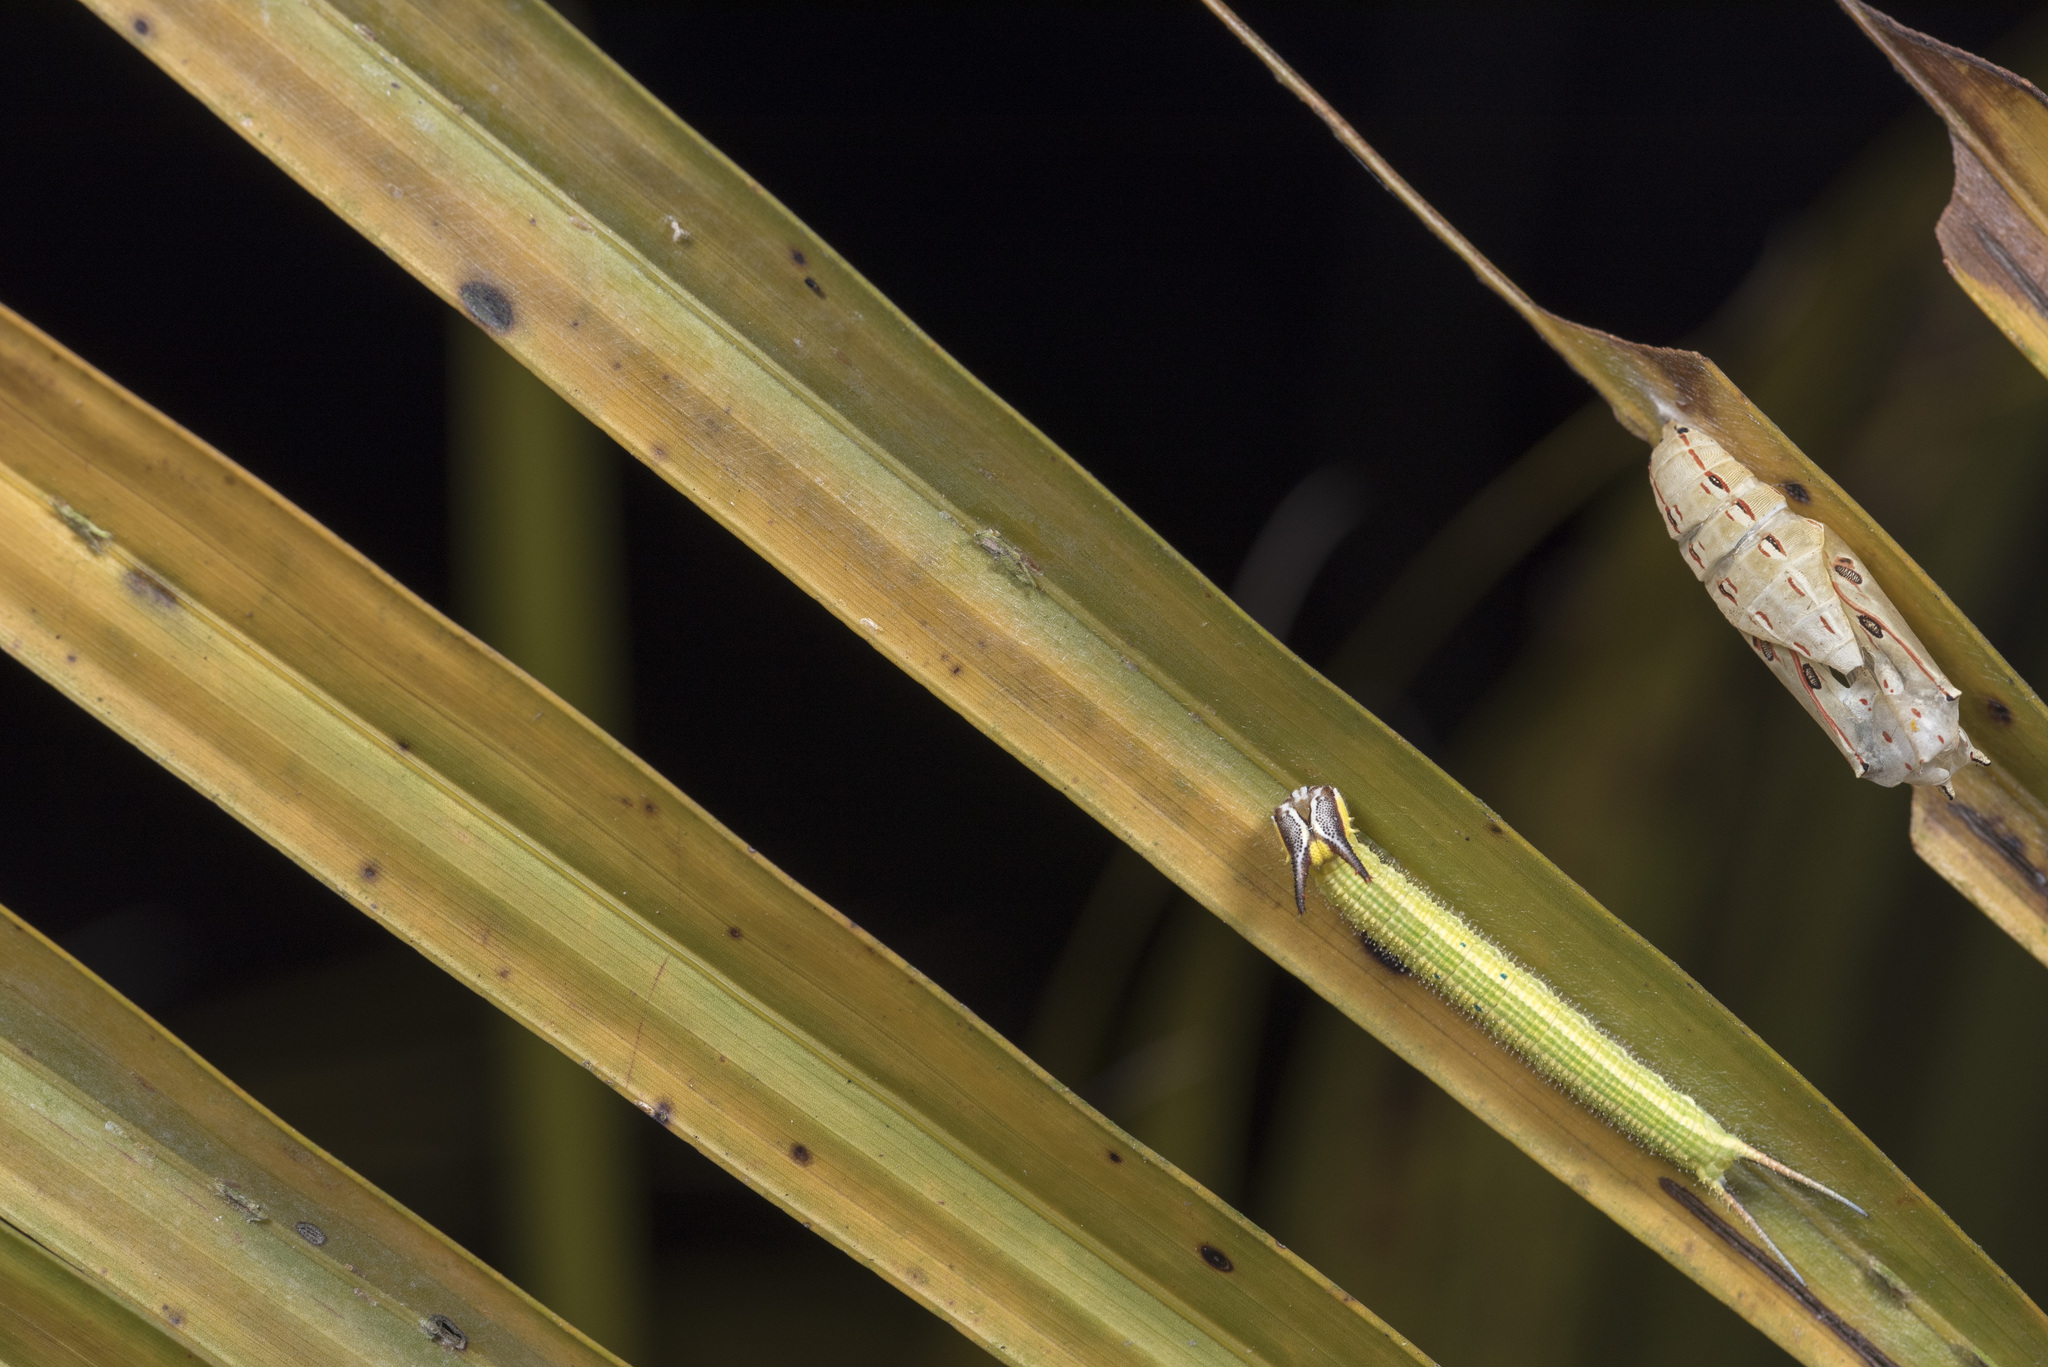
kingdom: Animalia
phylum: Arthropoda
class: Insecta
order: Lepidoptera
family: Nymphalidae
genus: Elymnias
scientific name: Elymnias hypermnestra
